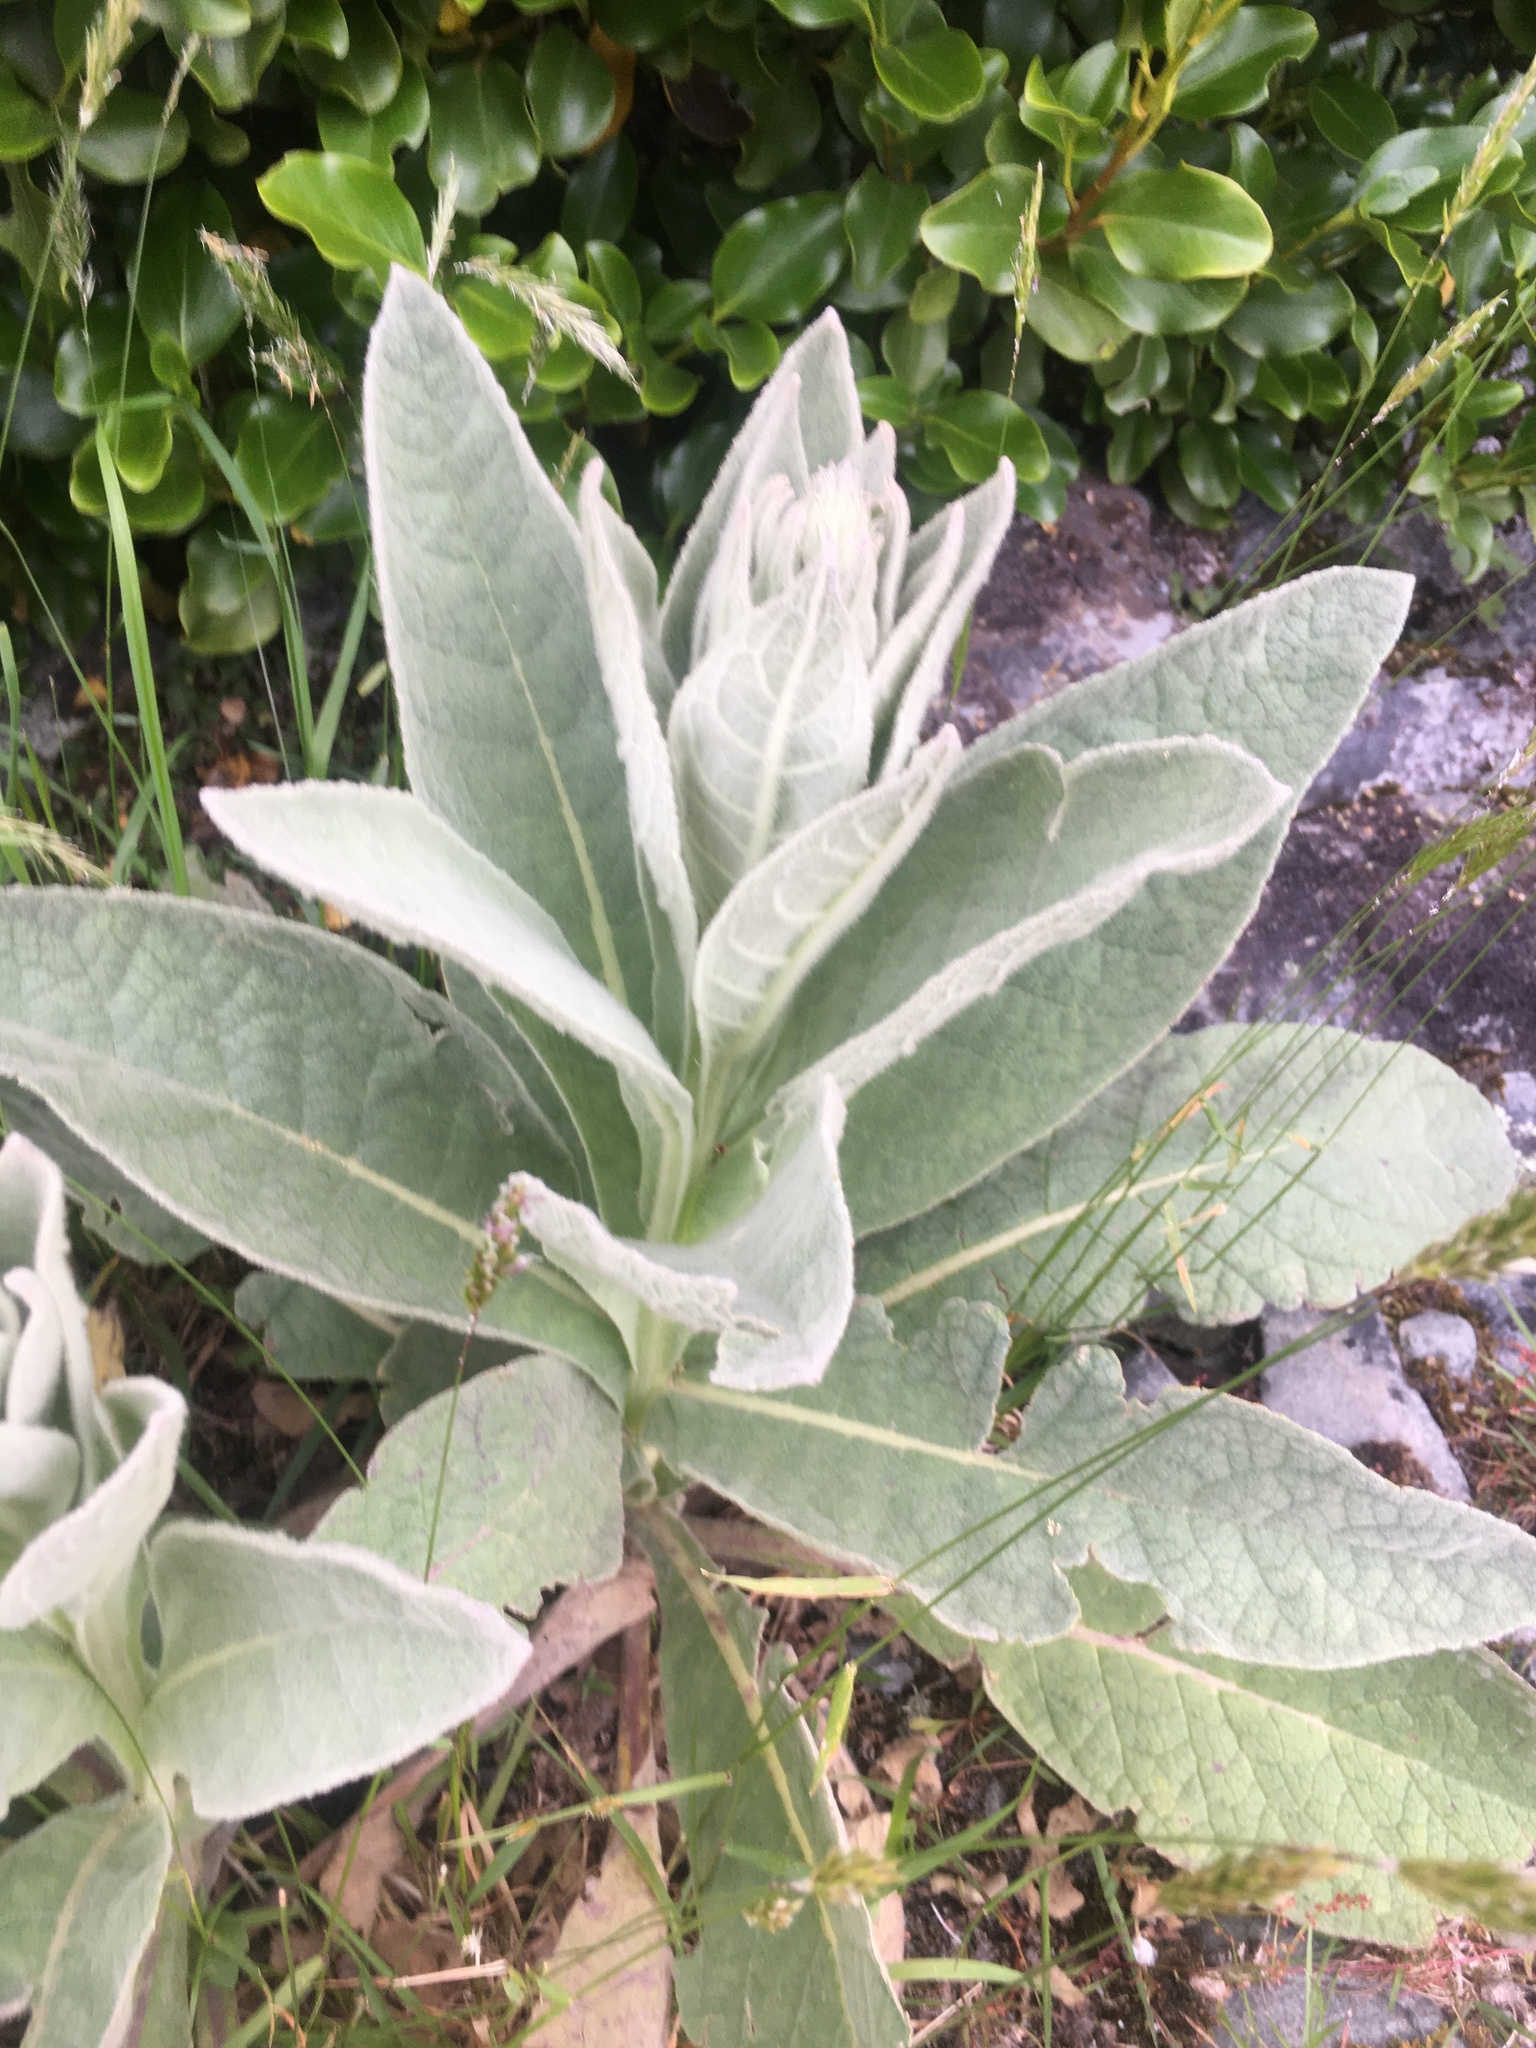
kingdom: Plantae
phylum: Tracheophyta
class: Magnoliopsida
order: Lamiales
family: Scrophulariaceae
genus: Verbascum
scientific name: Verbascum thapsus
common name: Common mullein
